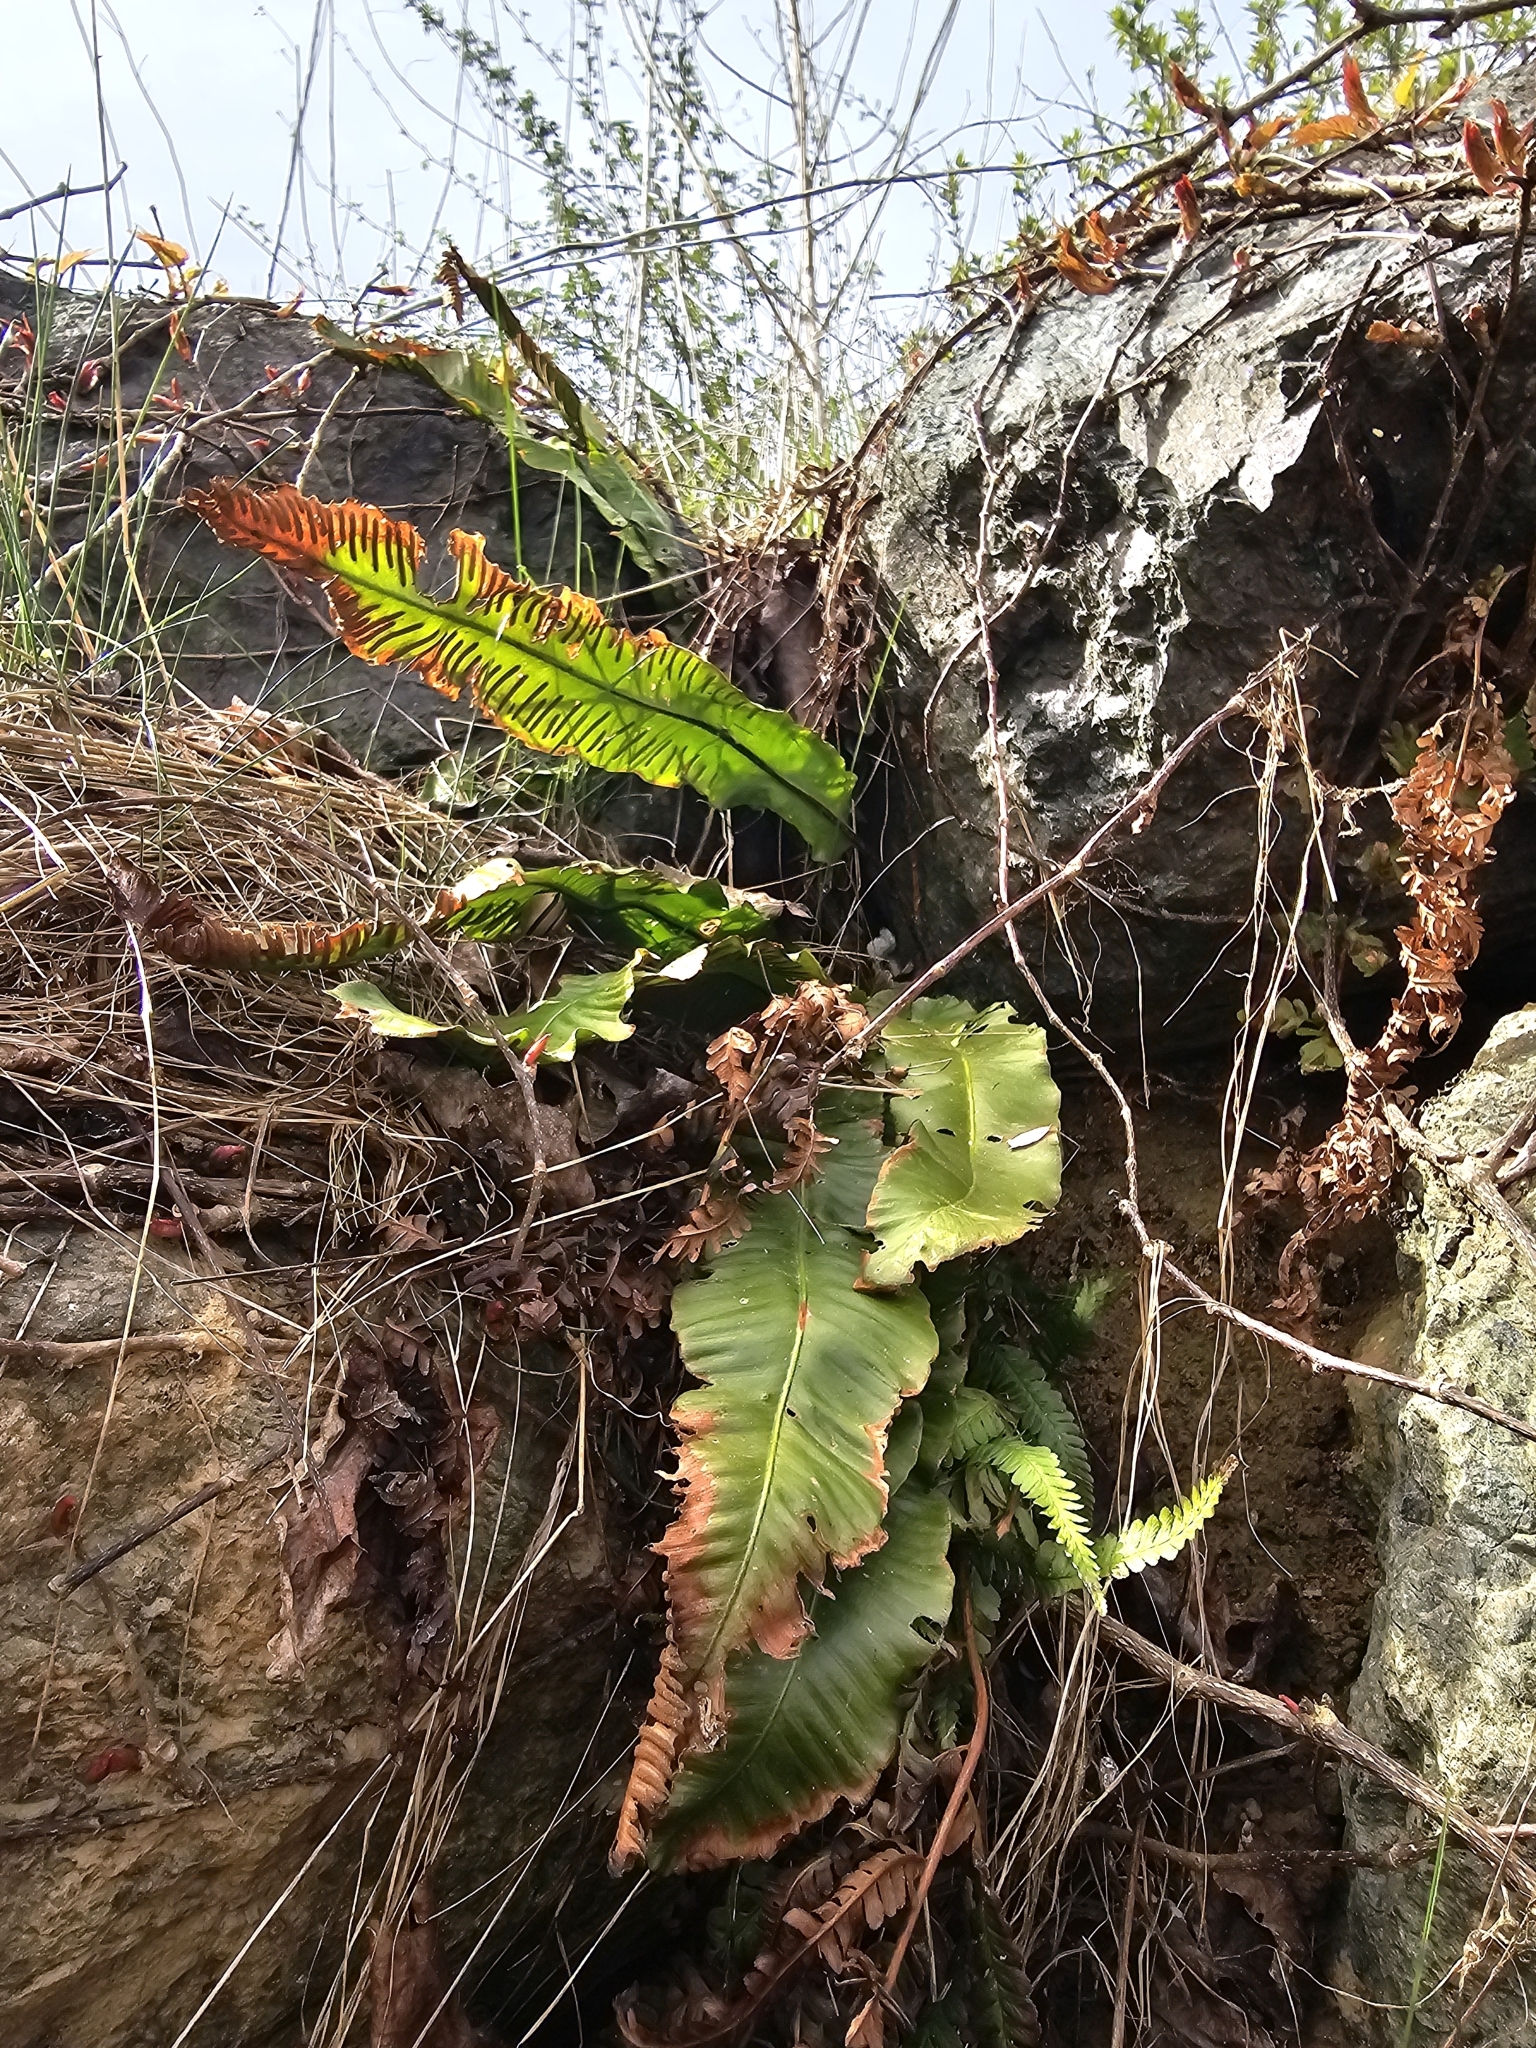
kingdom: Plantae
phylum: Tracheophyta
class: Polypodiopsida
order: Polypodiales
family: Aspleniaceae
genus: Asplenium
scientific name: Asplenium scolopendrium
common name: Hart's-tongue fern
